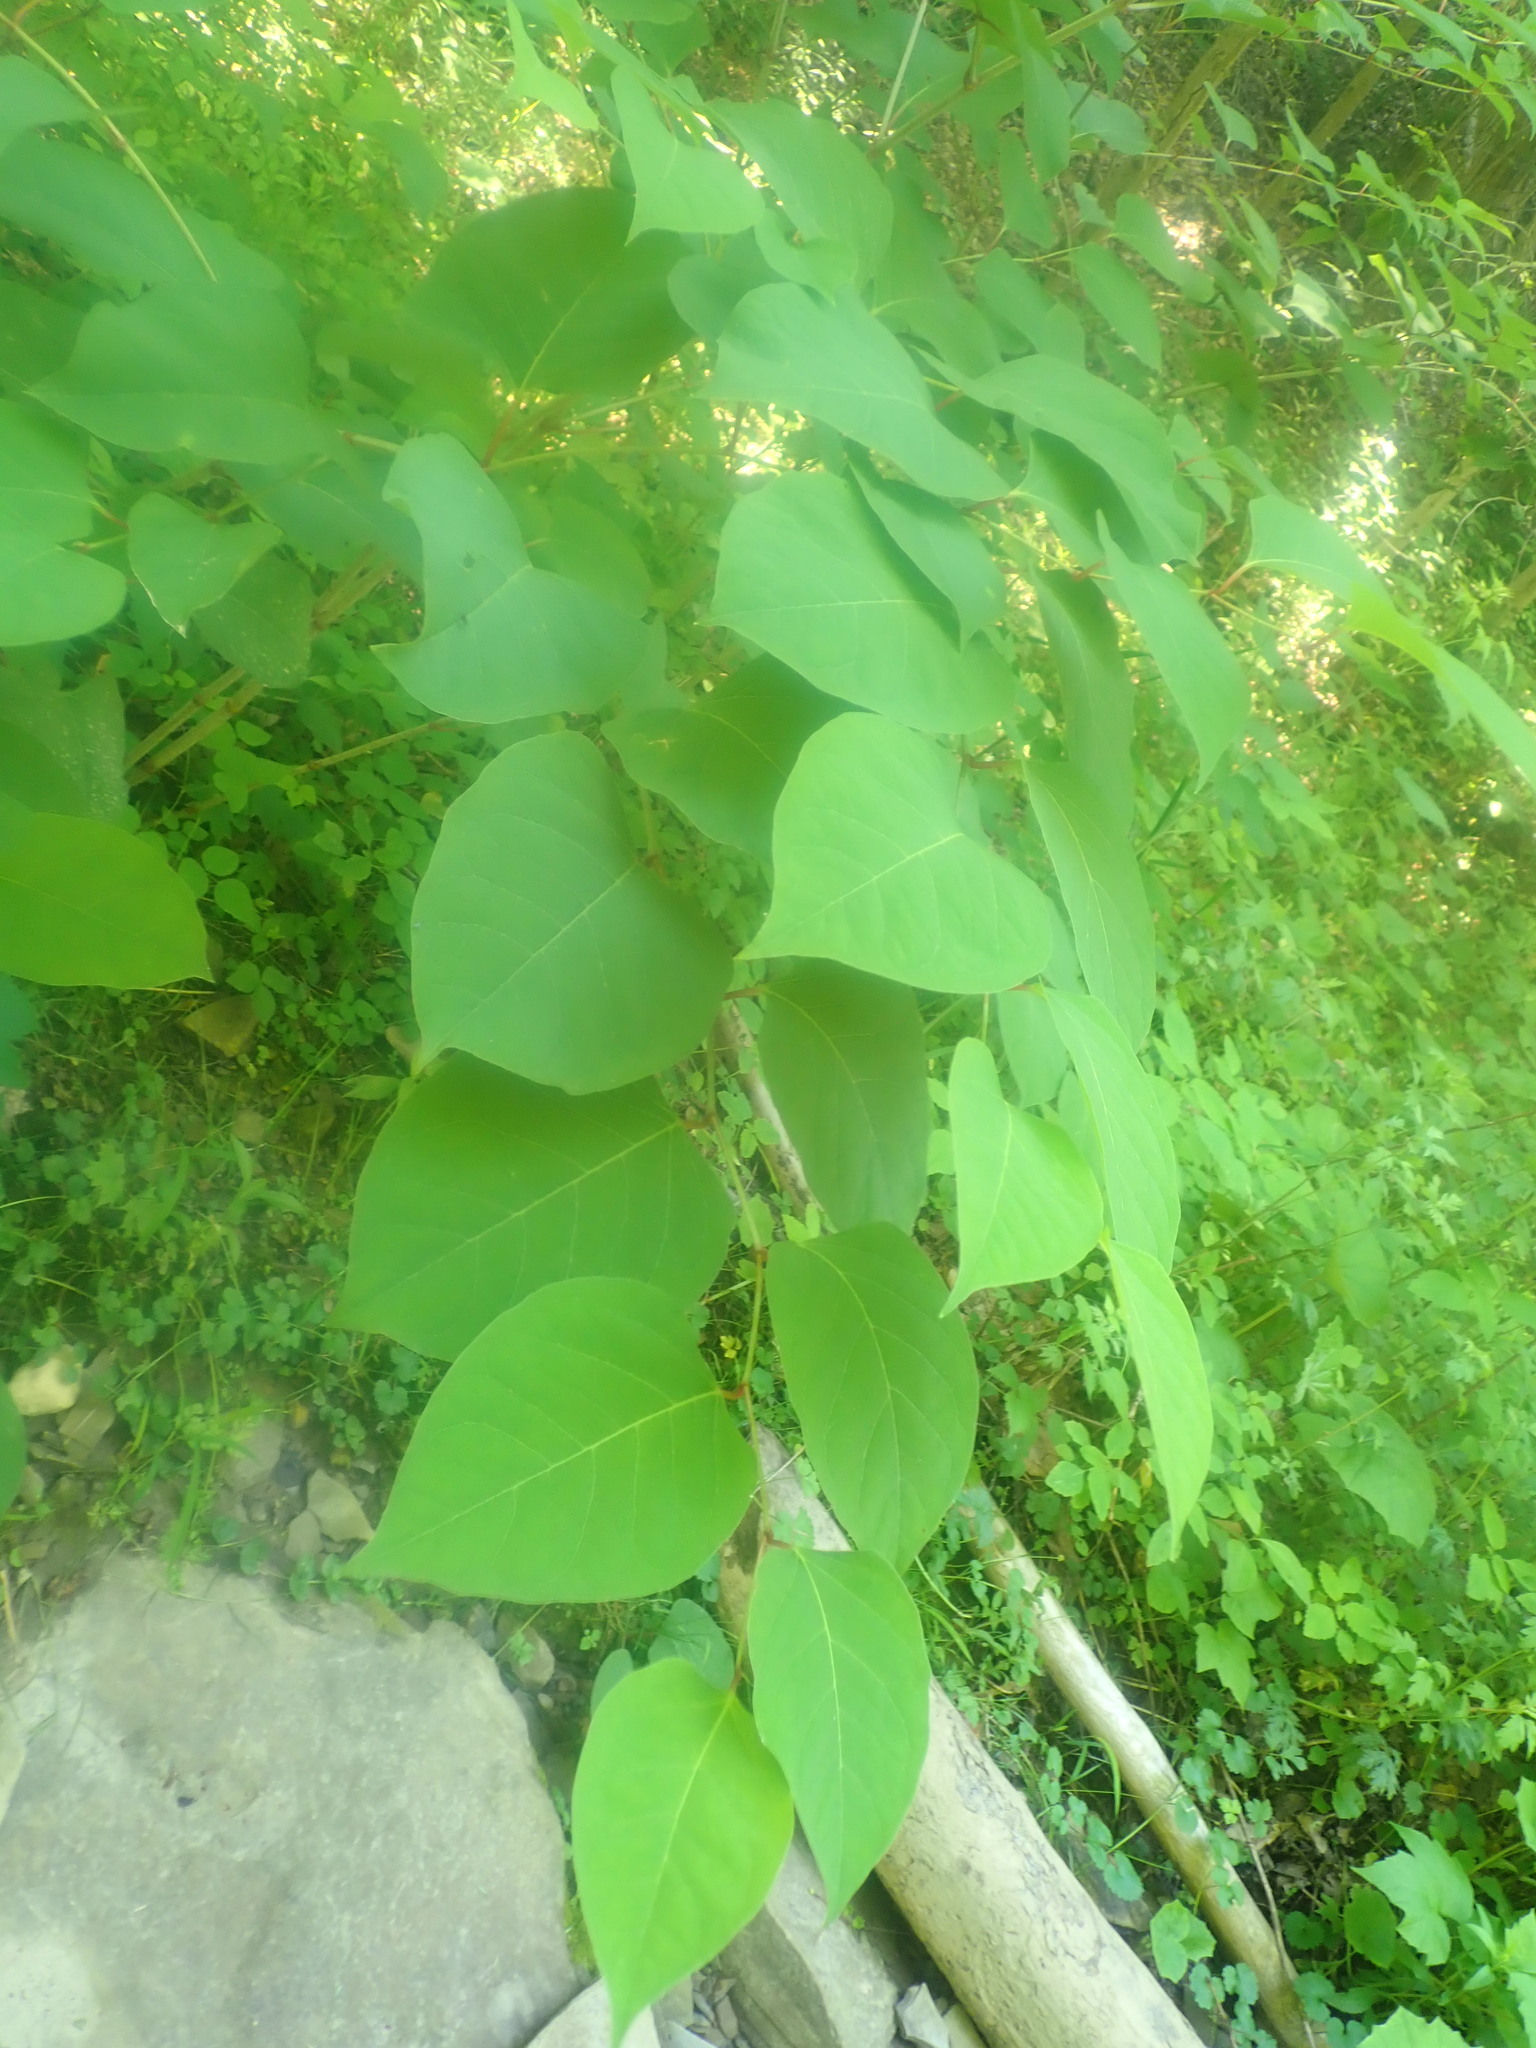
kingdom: Plantae
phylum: Tracheophyta
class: Magnoliopsida
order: Caryophyllales
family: Polygonaceae
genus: Reynoutria
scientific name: Reynoutria japonica
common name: Japanese knotweed
